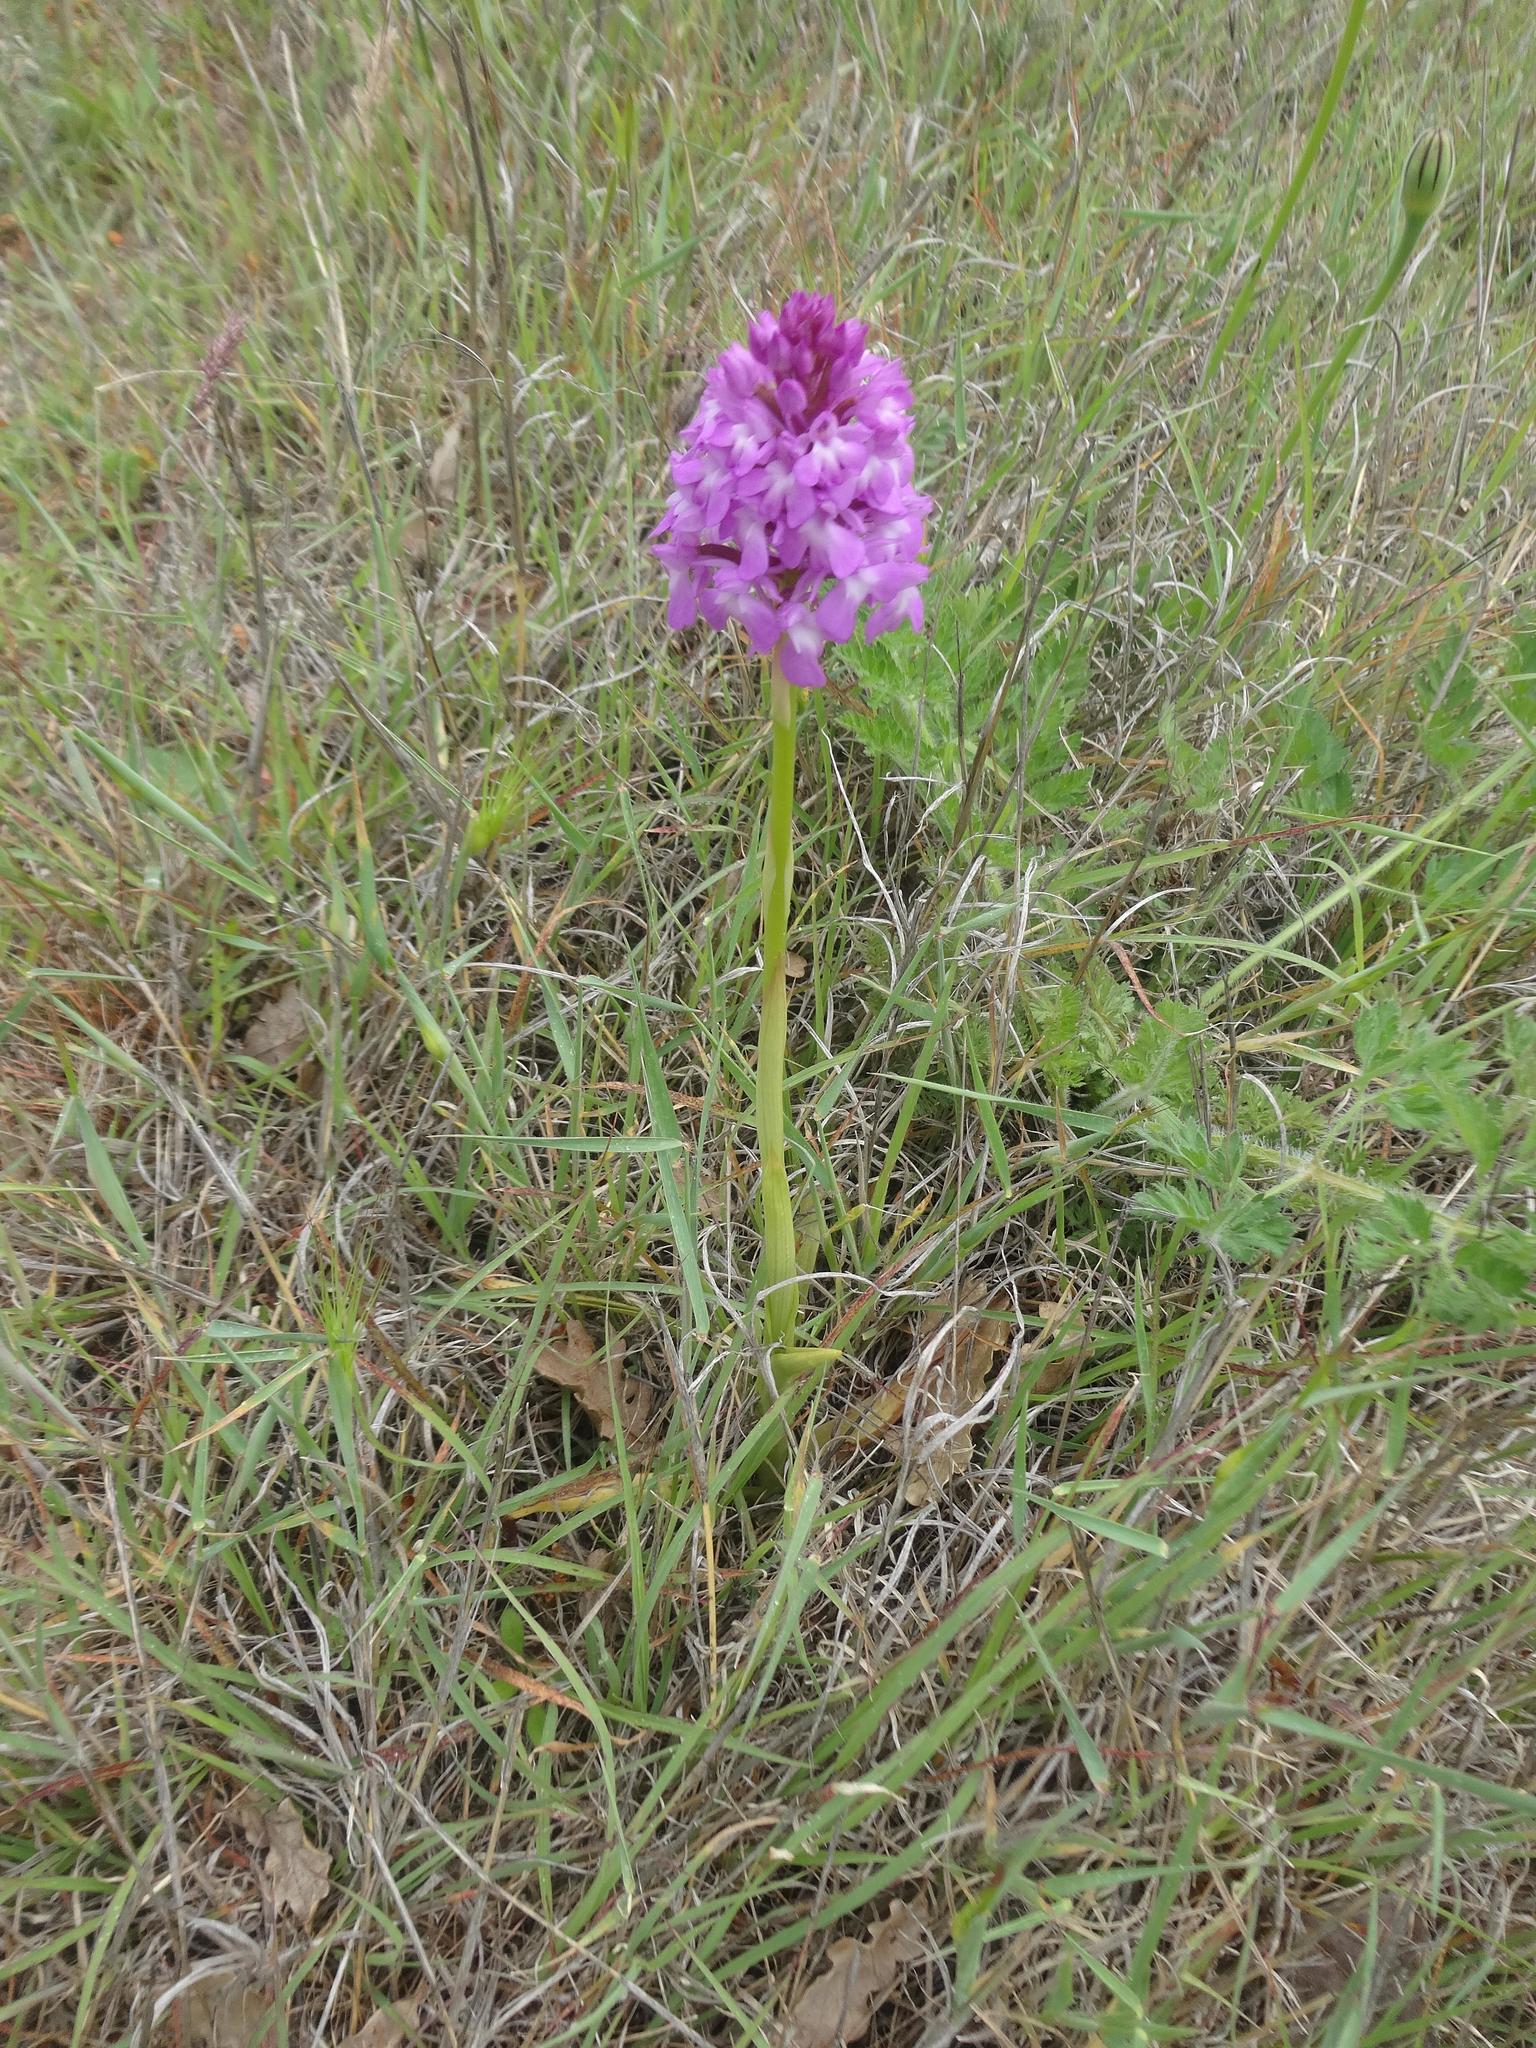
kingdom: Plantae
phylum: Tracheophyta
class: Liliopsida
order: Asparagales
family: Orchidaceae
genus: Anacamptis
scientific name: Anacamptis pyramidalis
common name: Pyramidal orchid
